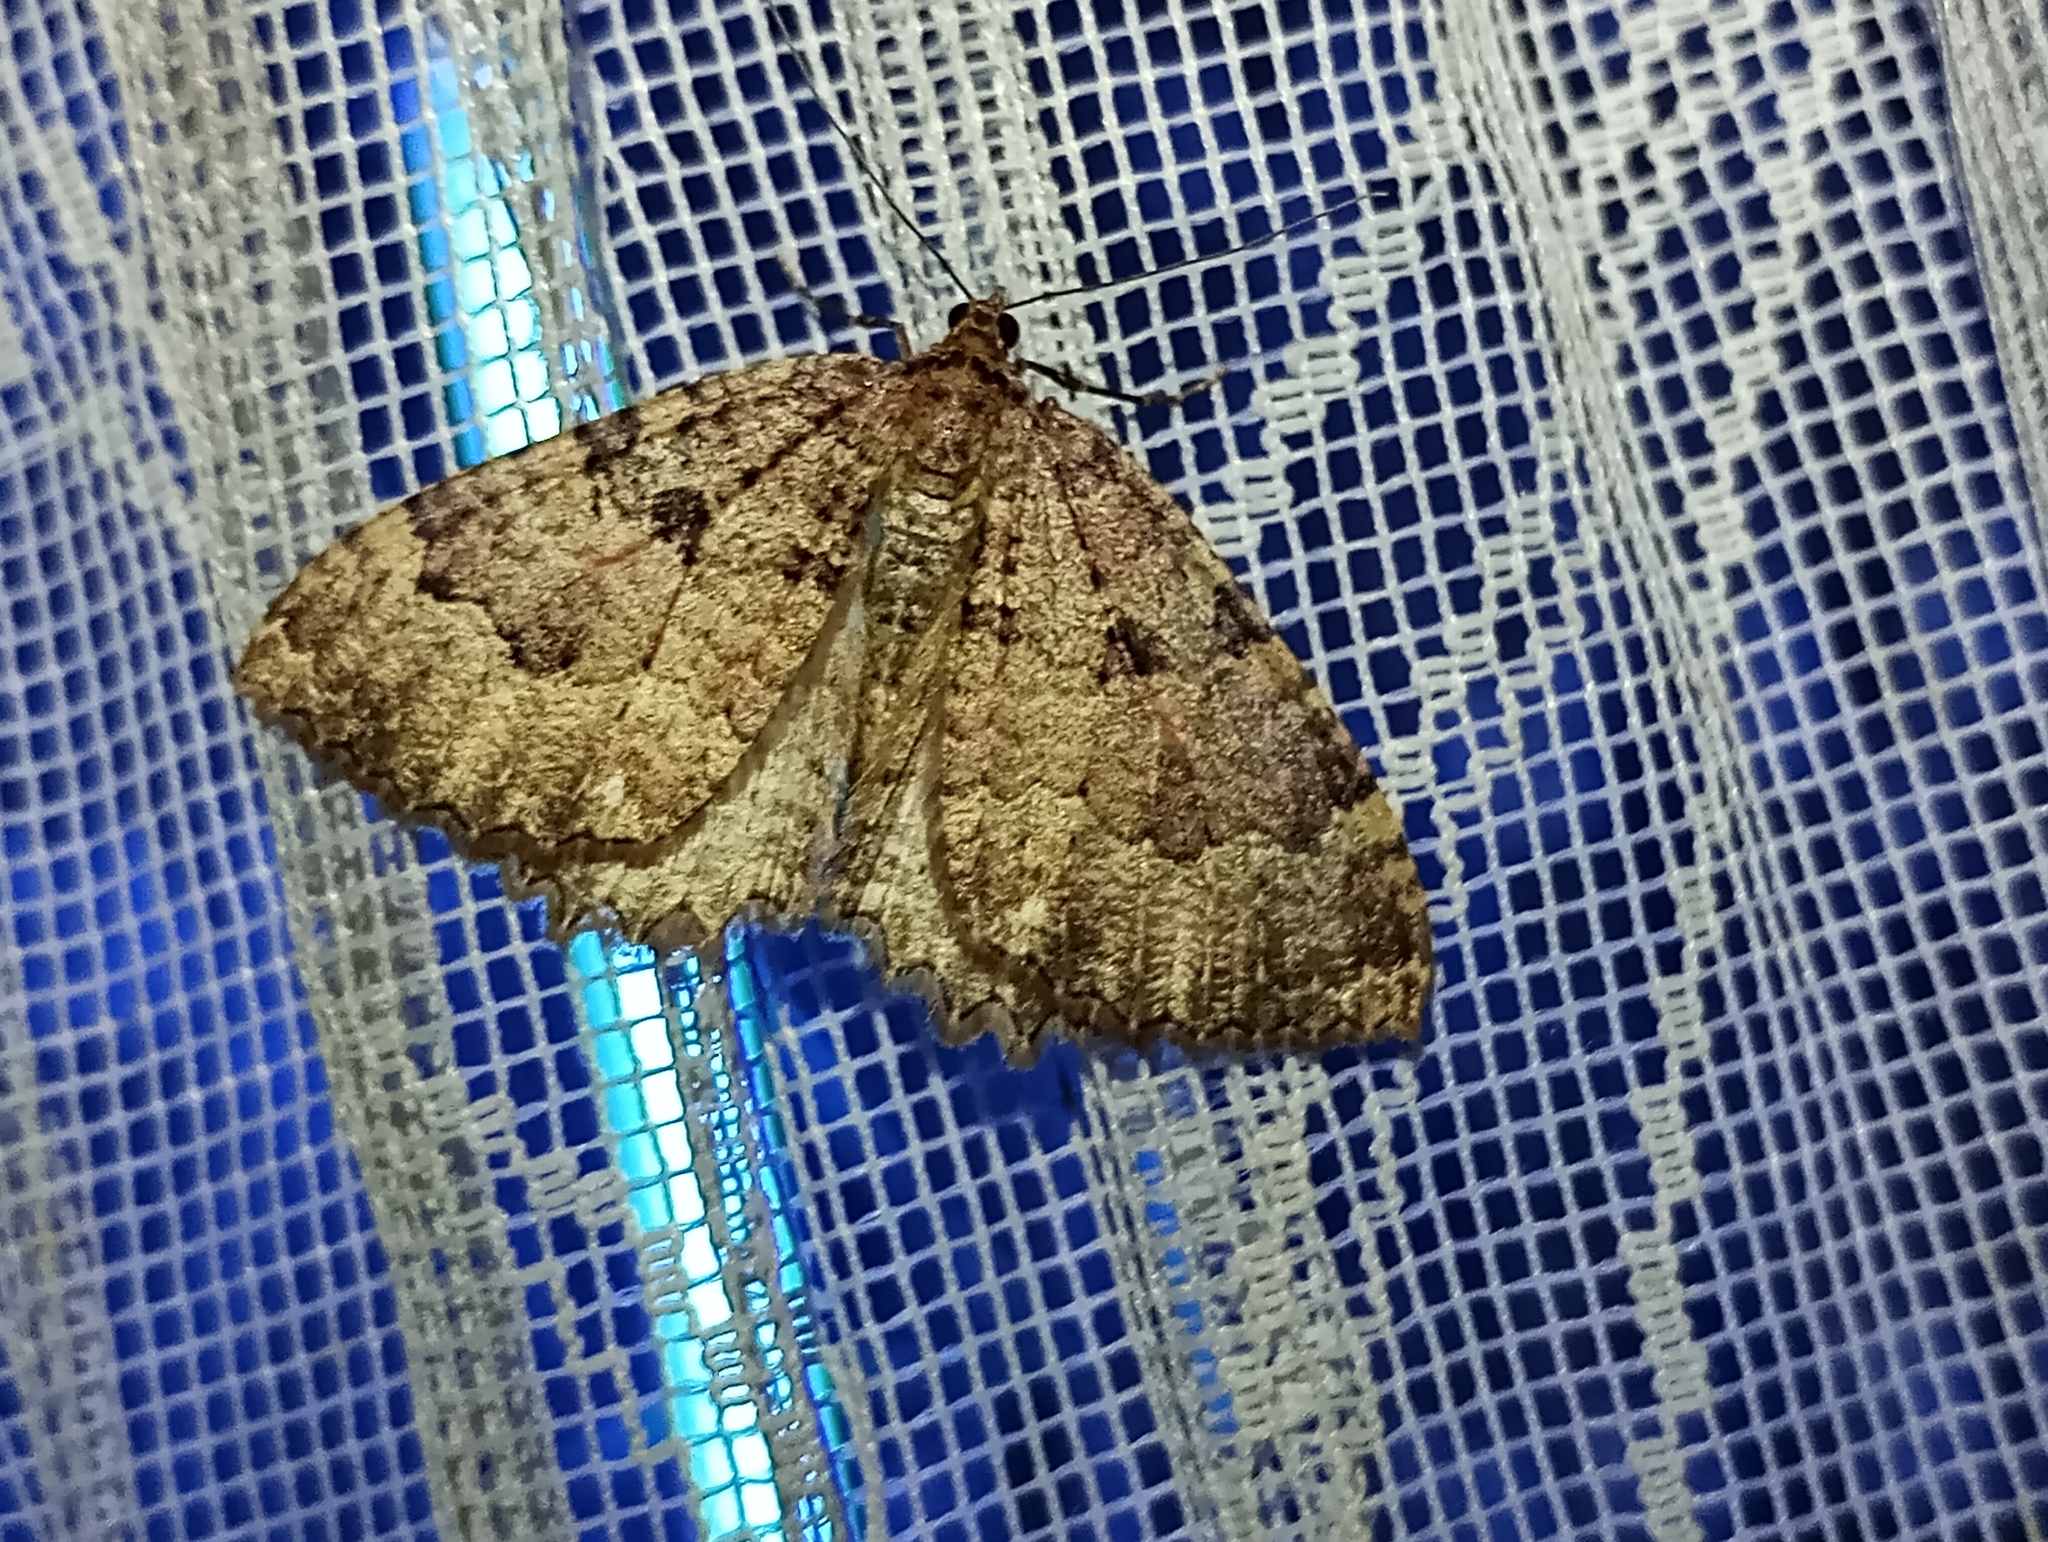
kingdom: Animalia
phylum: Arthropoda
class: Insecta
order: Lepidoptera
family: Geometridae
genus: Triphosa
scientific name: Triphosa dubitata
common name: Tissue
